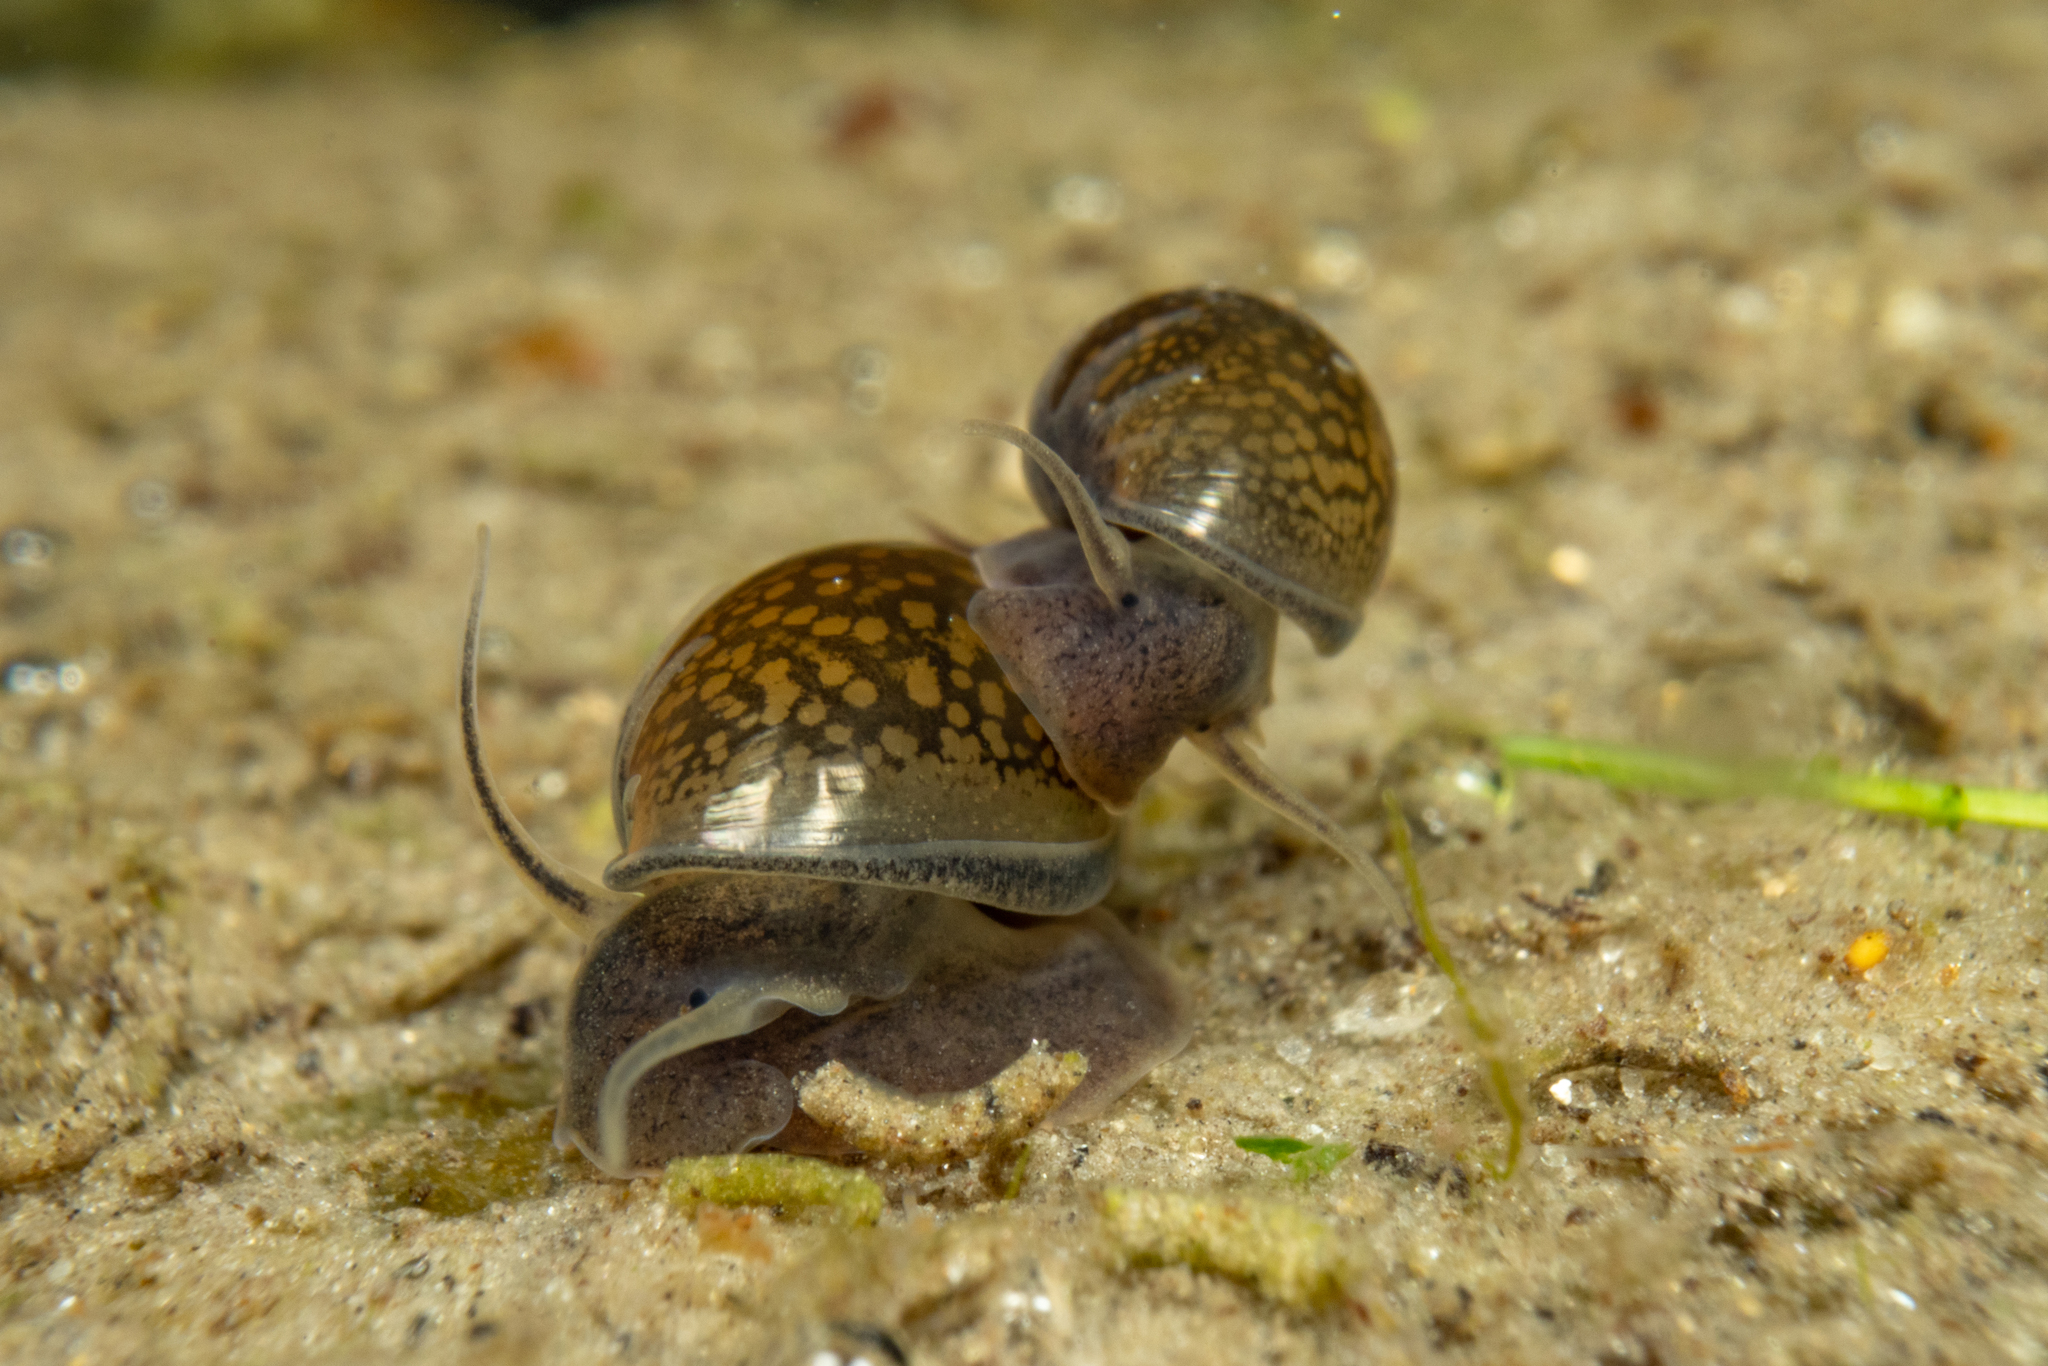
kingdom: Animalia
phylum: Mollusca
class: Gastropoda
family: Physidae
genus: Physella
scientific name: Physella acuta
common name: European physa
